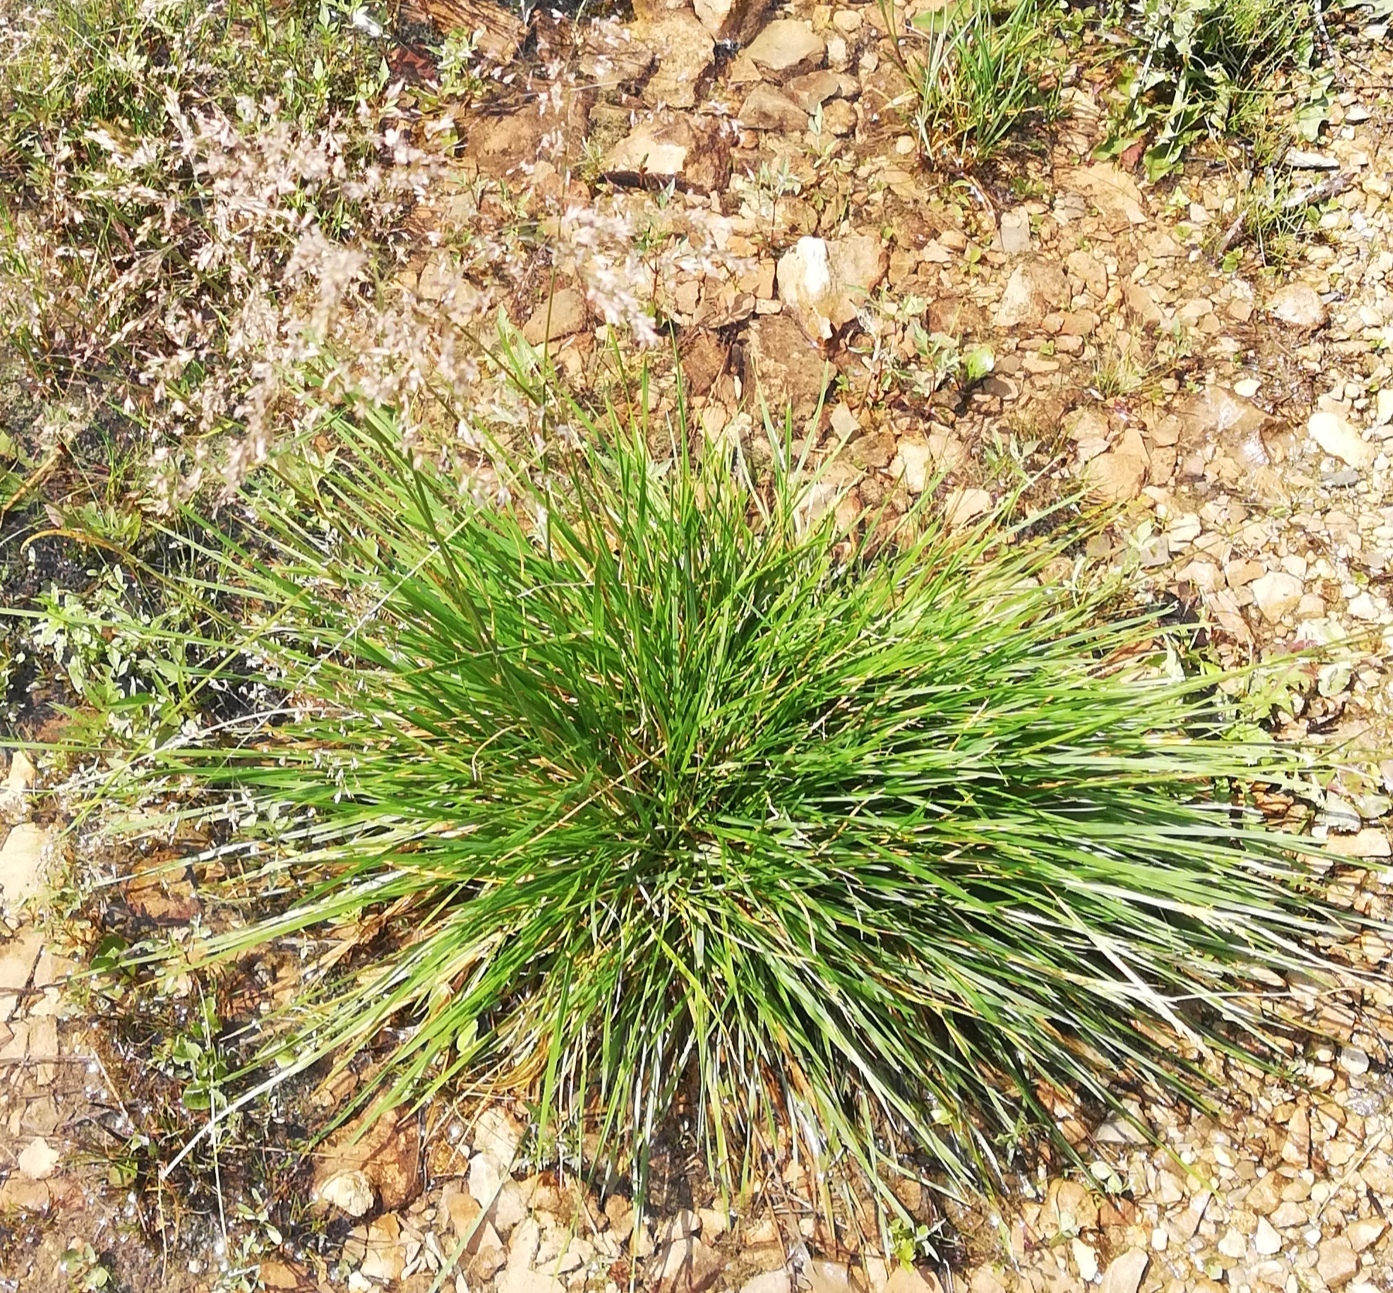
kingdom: Plantae
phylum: Tracheophyta
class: Liliopsida
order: Poales
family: Poaceae
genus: Deschampsia
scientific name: Deschampsia cespitosa
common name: Tufted hair-grass
